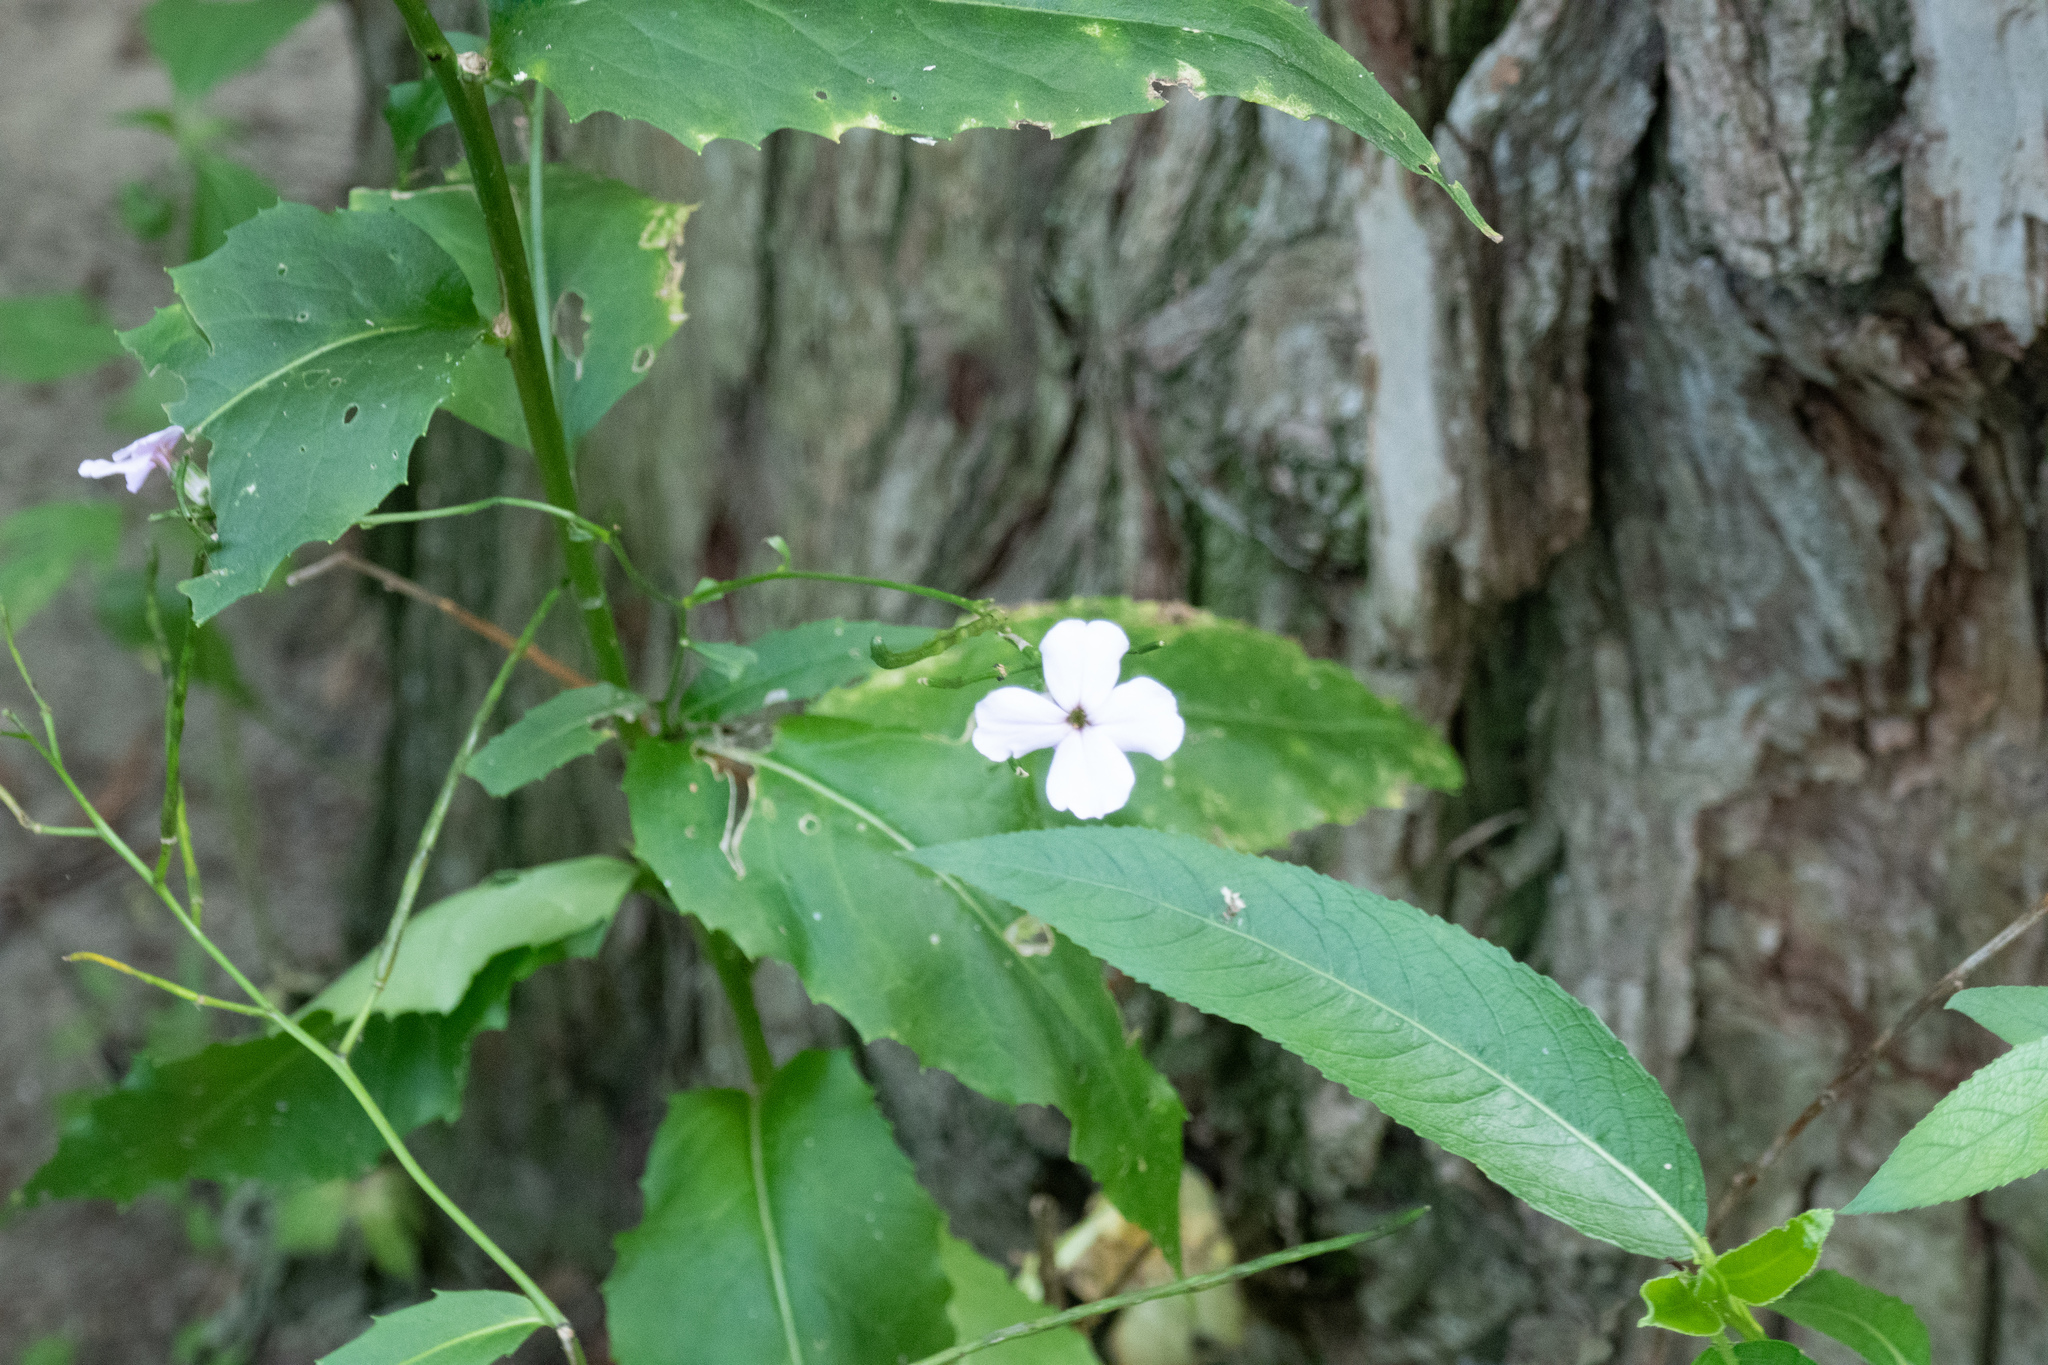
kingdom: Plantae
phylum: Tracheophyta
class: Magnoliopsida
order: Brassicales
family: Brassicaceae
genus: Hesperis
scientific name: Hesperis matronalis
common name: Dame's-violet
